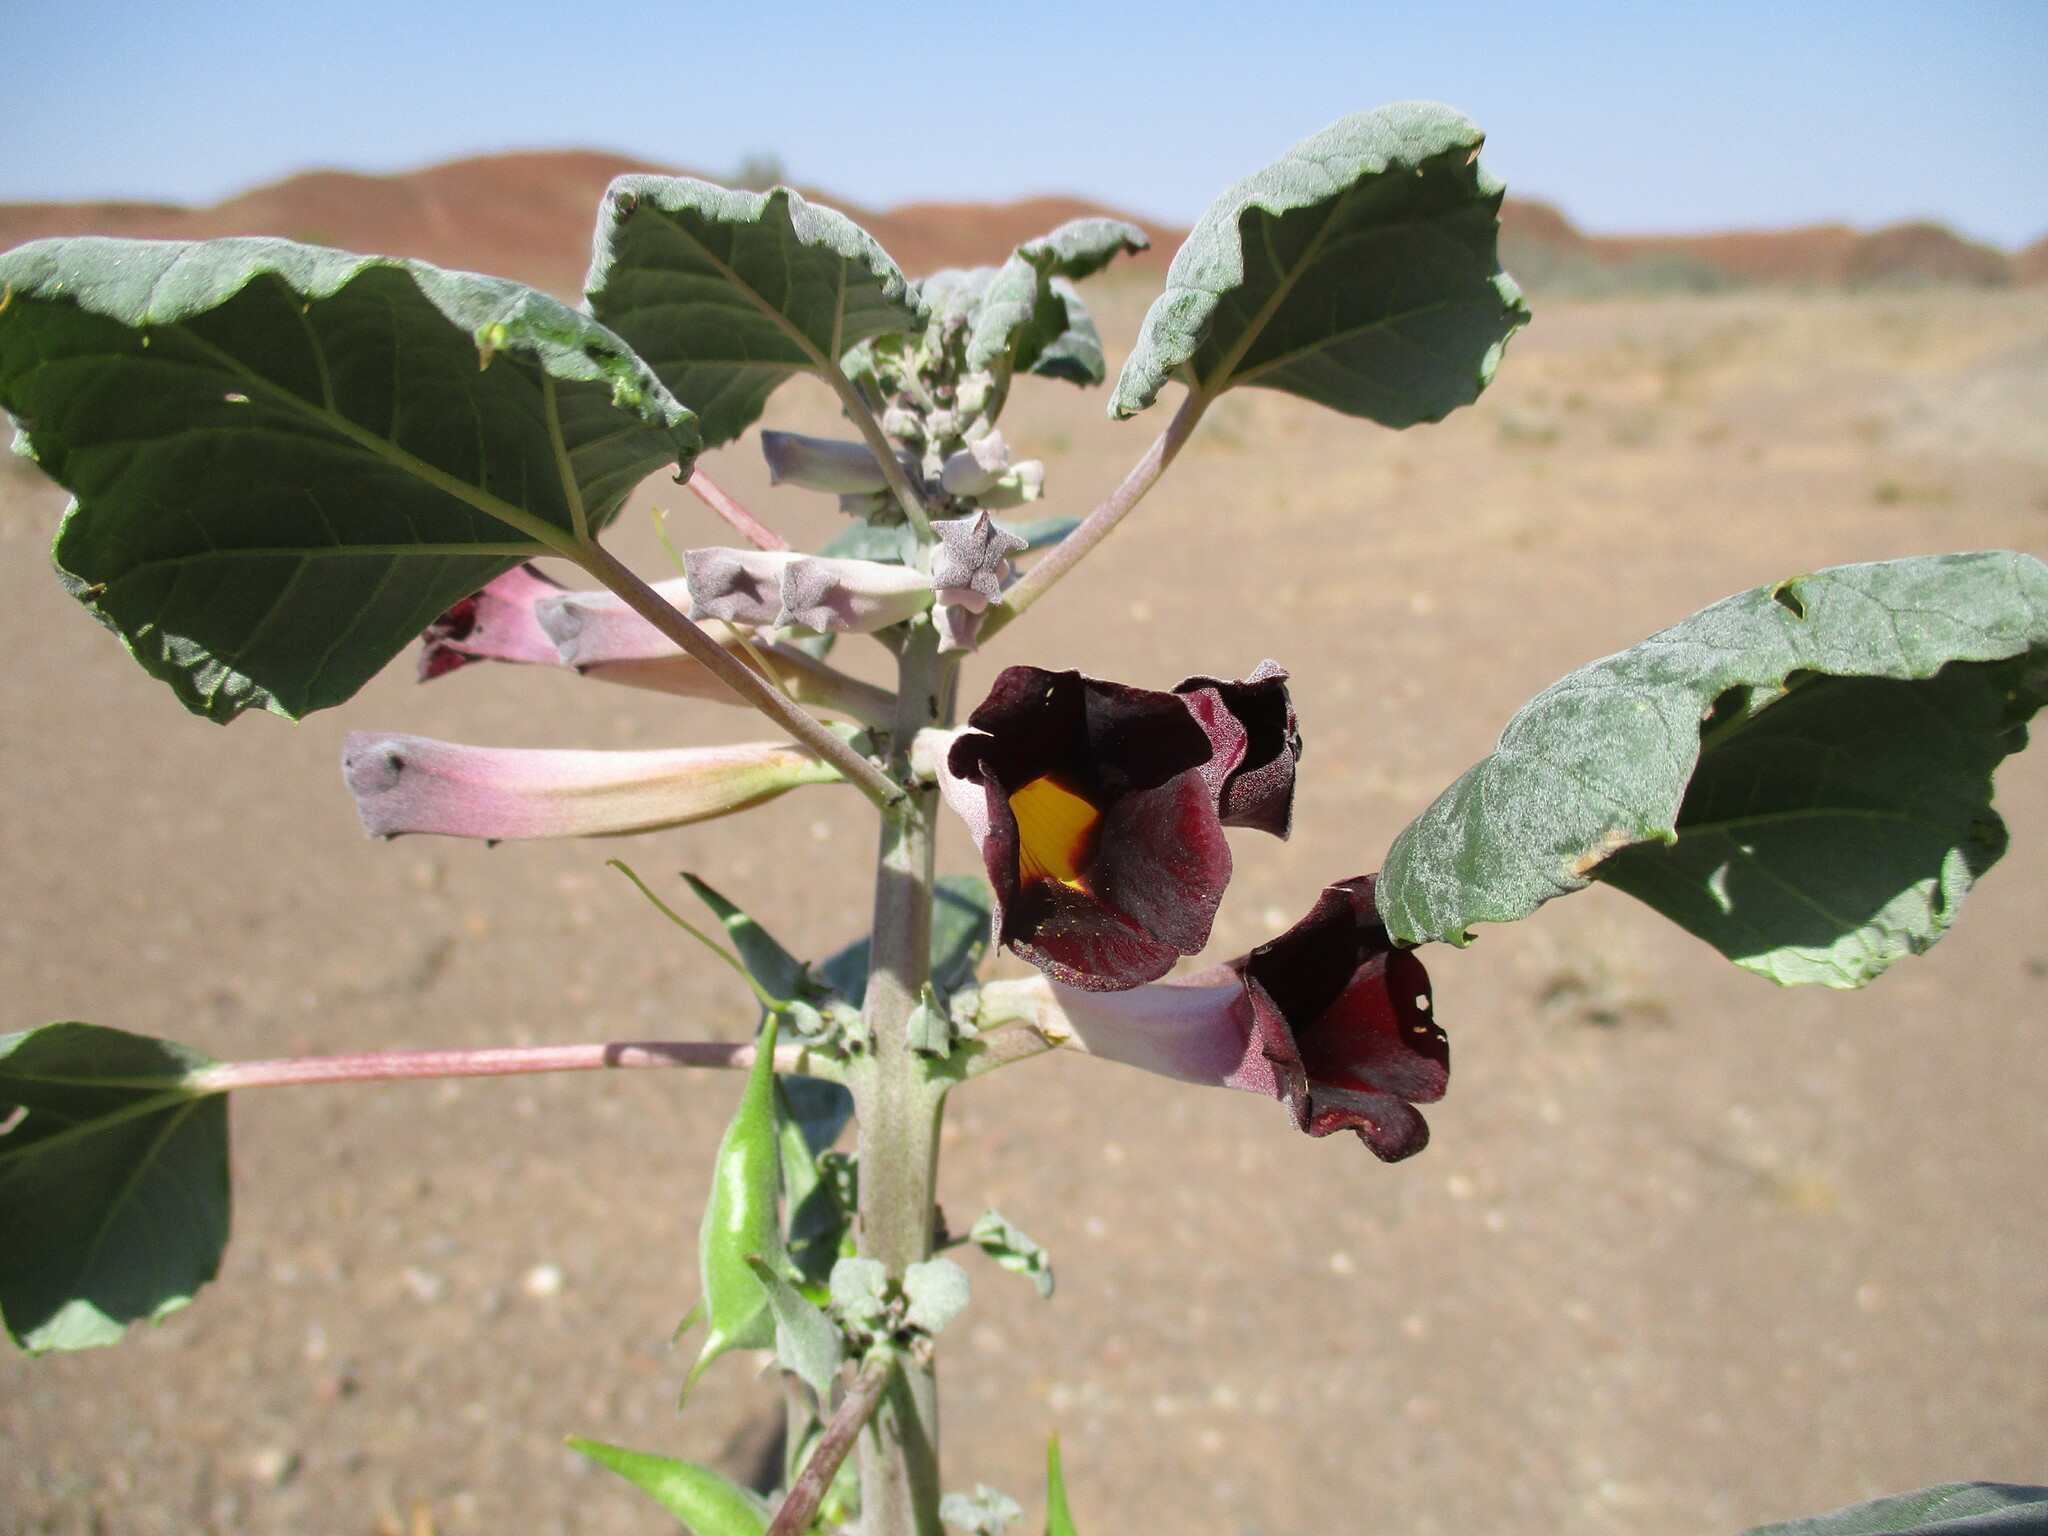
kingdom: Plantae
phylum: Tracheophyta
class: Magnoliopsida
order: Lamiales
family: Pedaliaceae
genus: Rogeria
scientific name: Rogeria adenophylla
